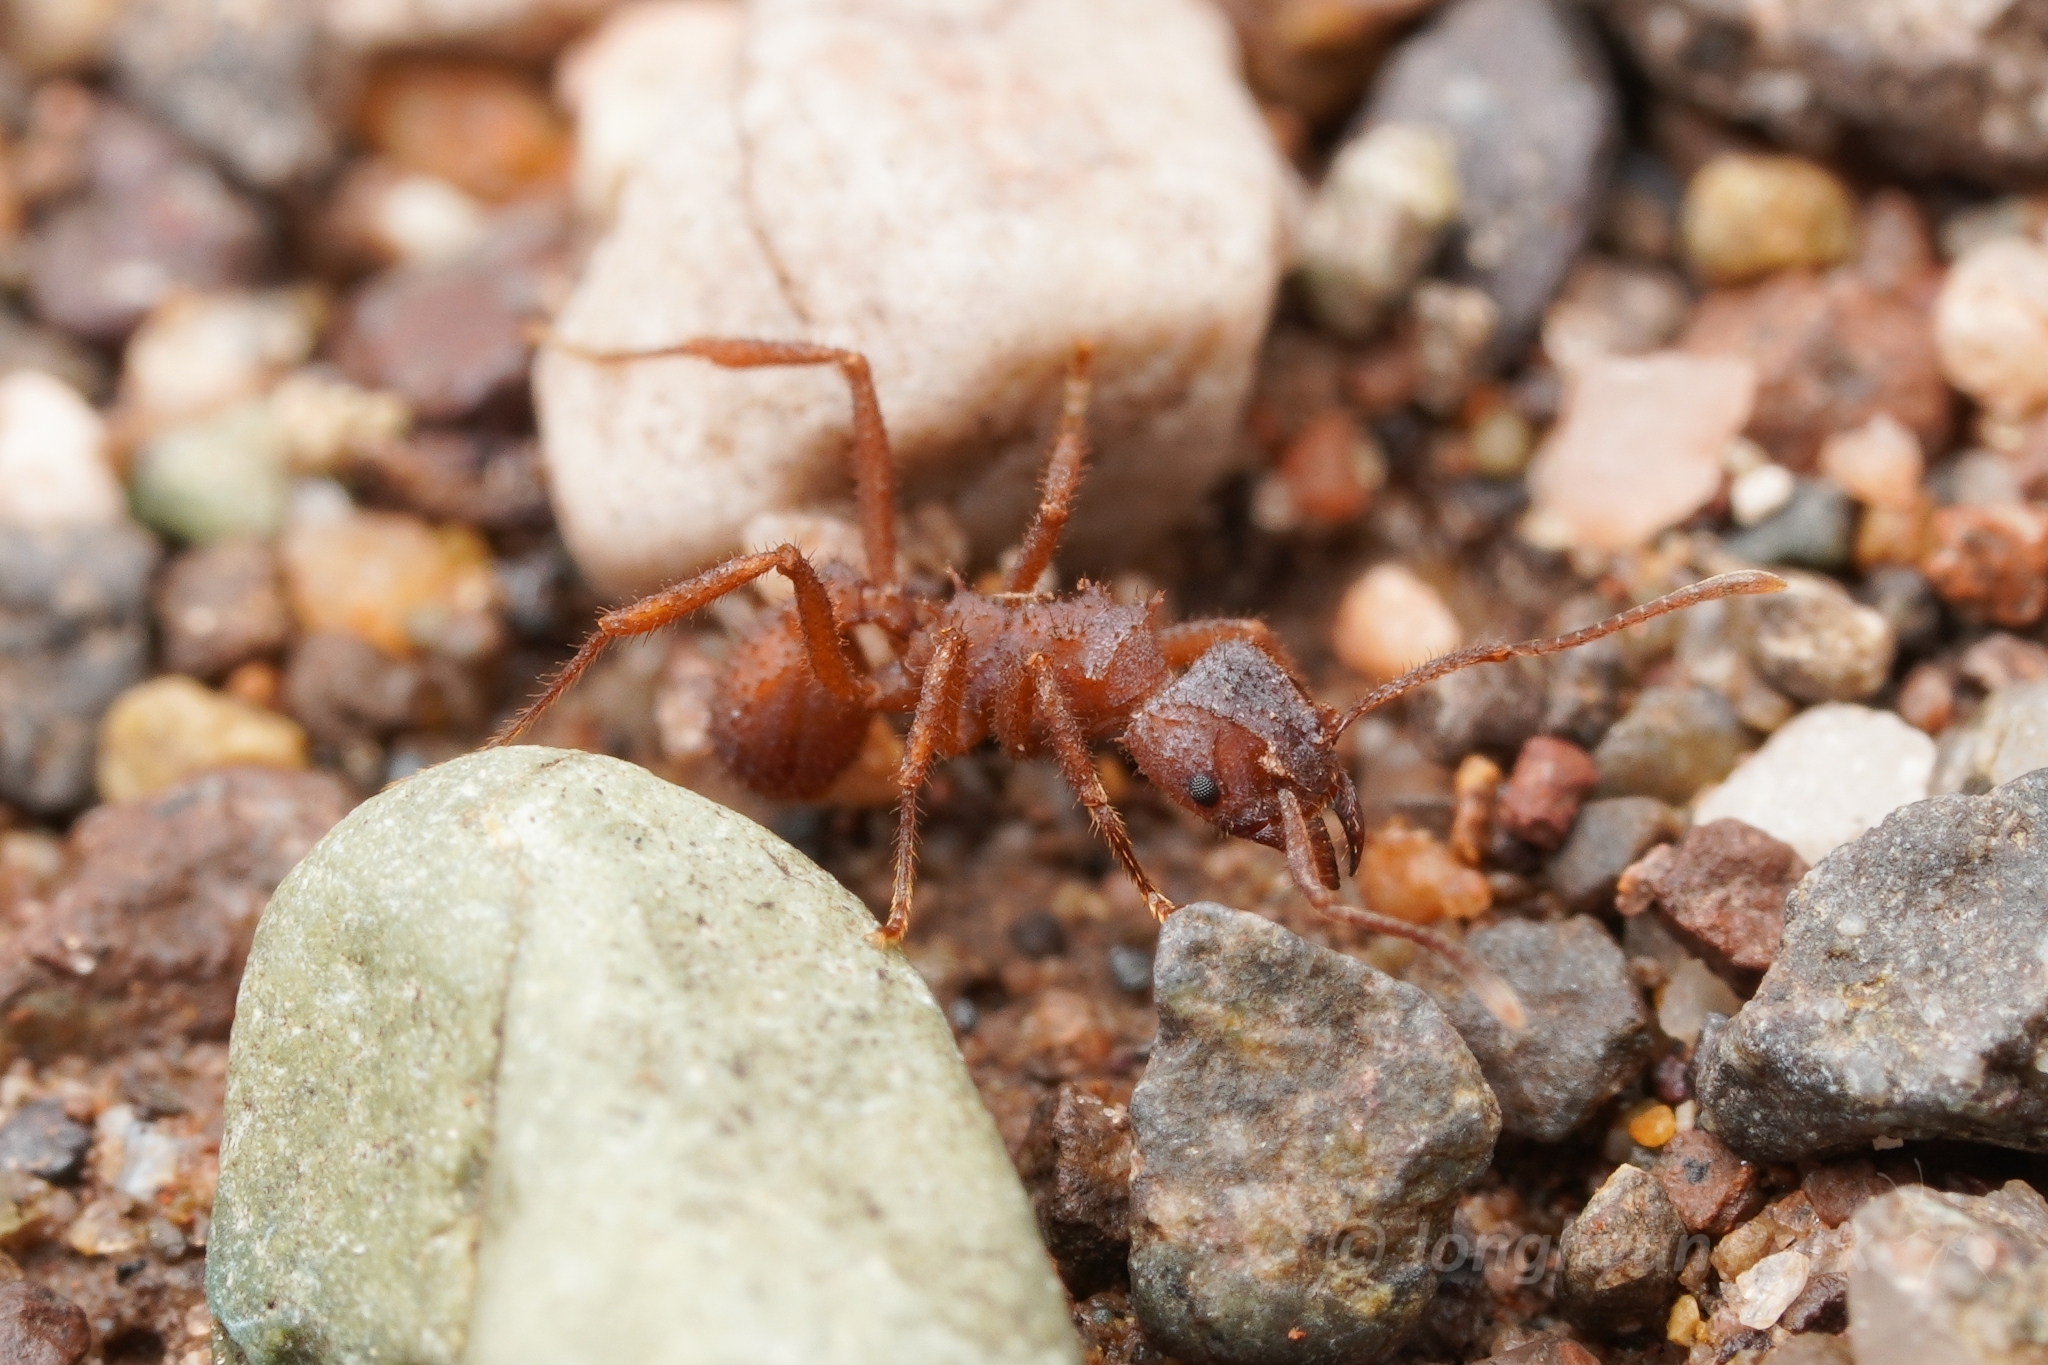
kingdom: Animalia
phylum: Arthropoda
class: Insecta
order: Hymenoptera
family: Formicidae
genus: Trachymyrmex
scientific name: Trachymyrmex arizonensis
